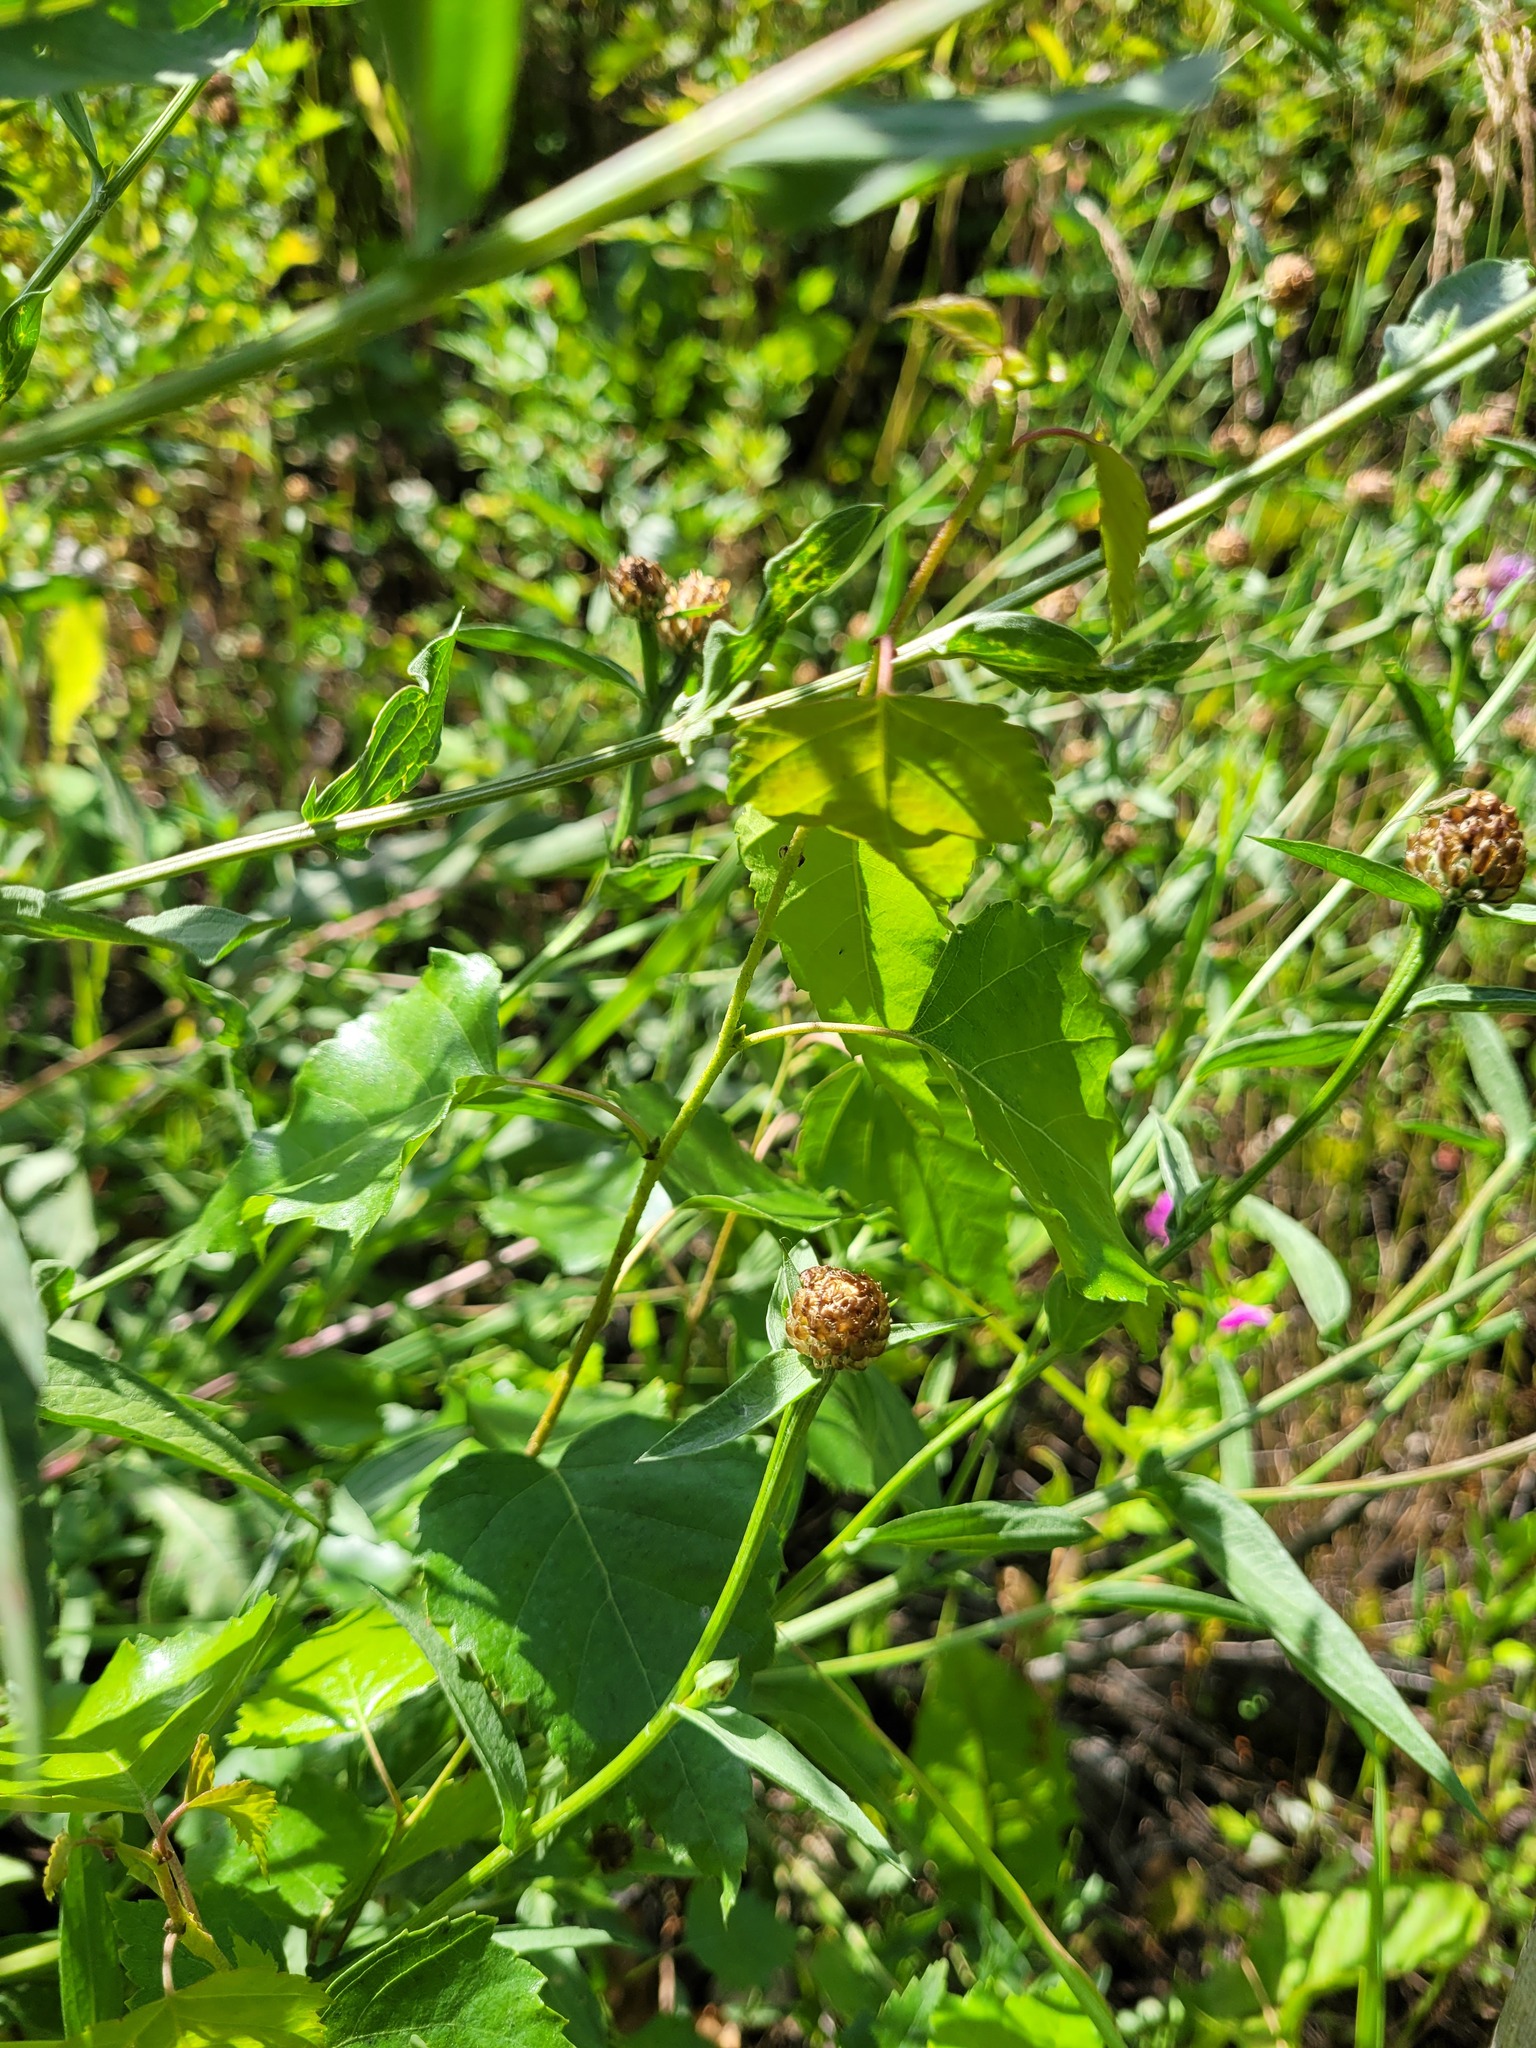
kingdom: Plantae
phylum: Tracheophyta
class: Magnoliopsida
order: Fagales
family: Betulaceae
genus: Betula
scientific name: Betula pendula
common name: Silver birch
